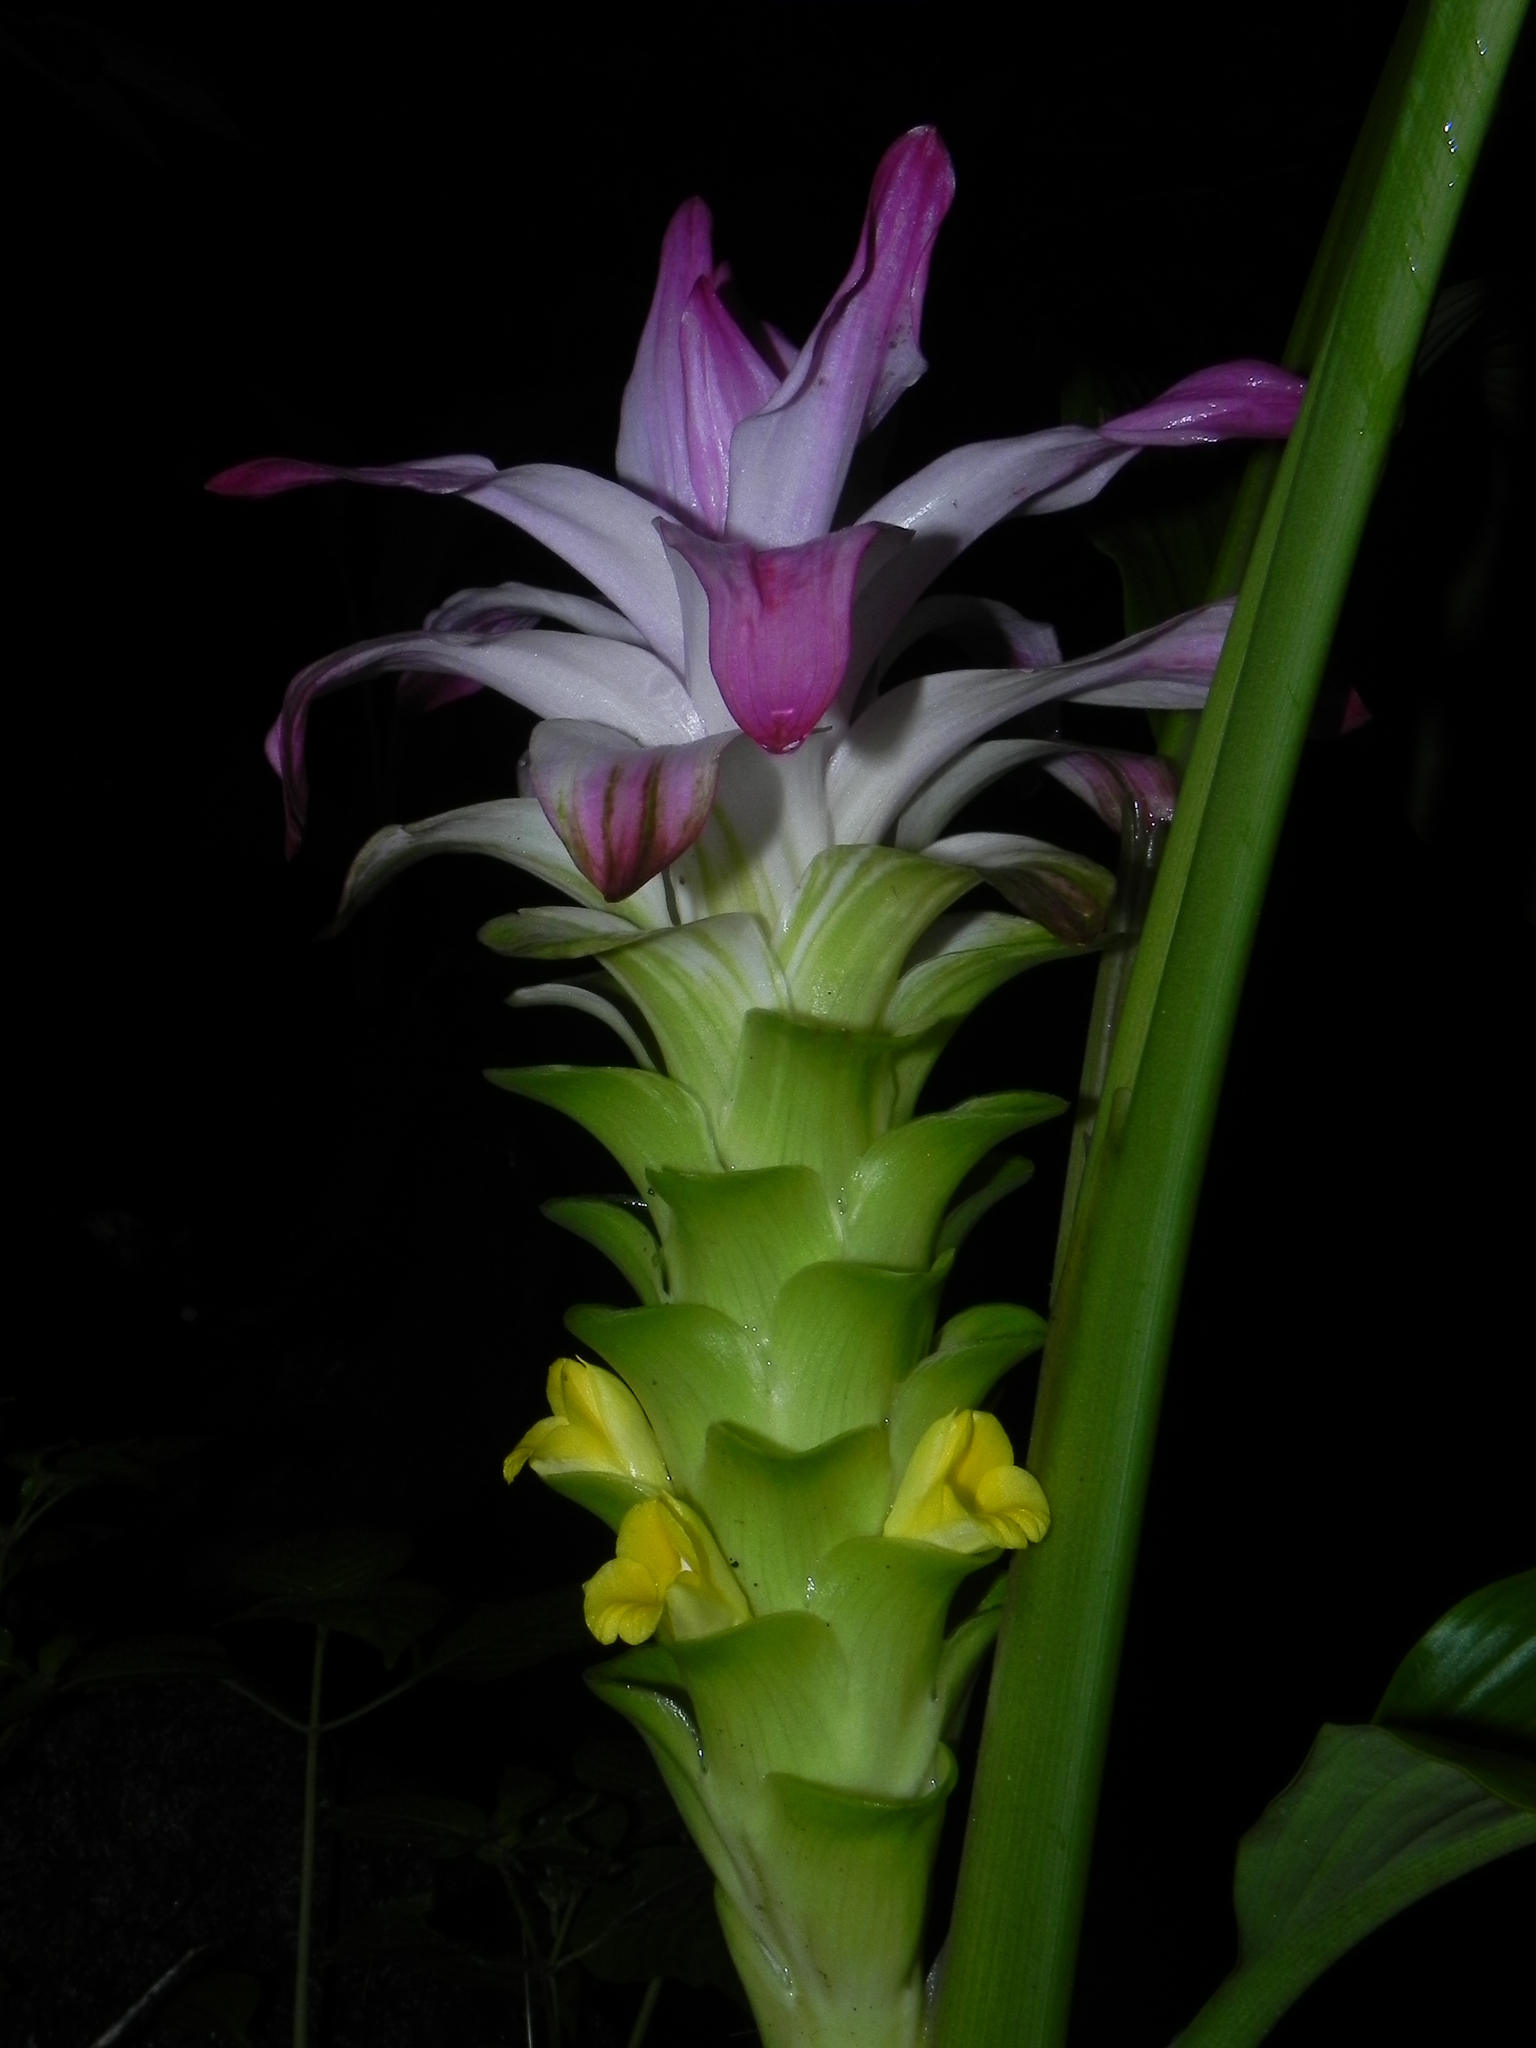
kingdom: Plantae
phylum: Tracheophyta
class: Liliopsida
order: Zingiberales
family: Zingiberaceae
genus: Curcuma
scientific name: Curcuma pseudomontana
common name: Hill turmeric
